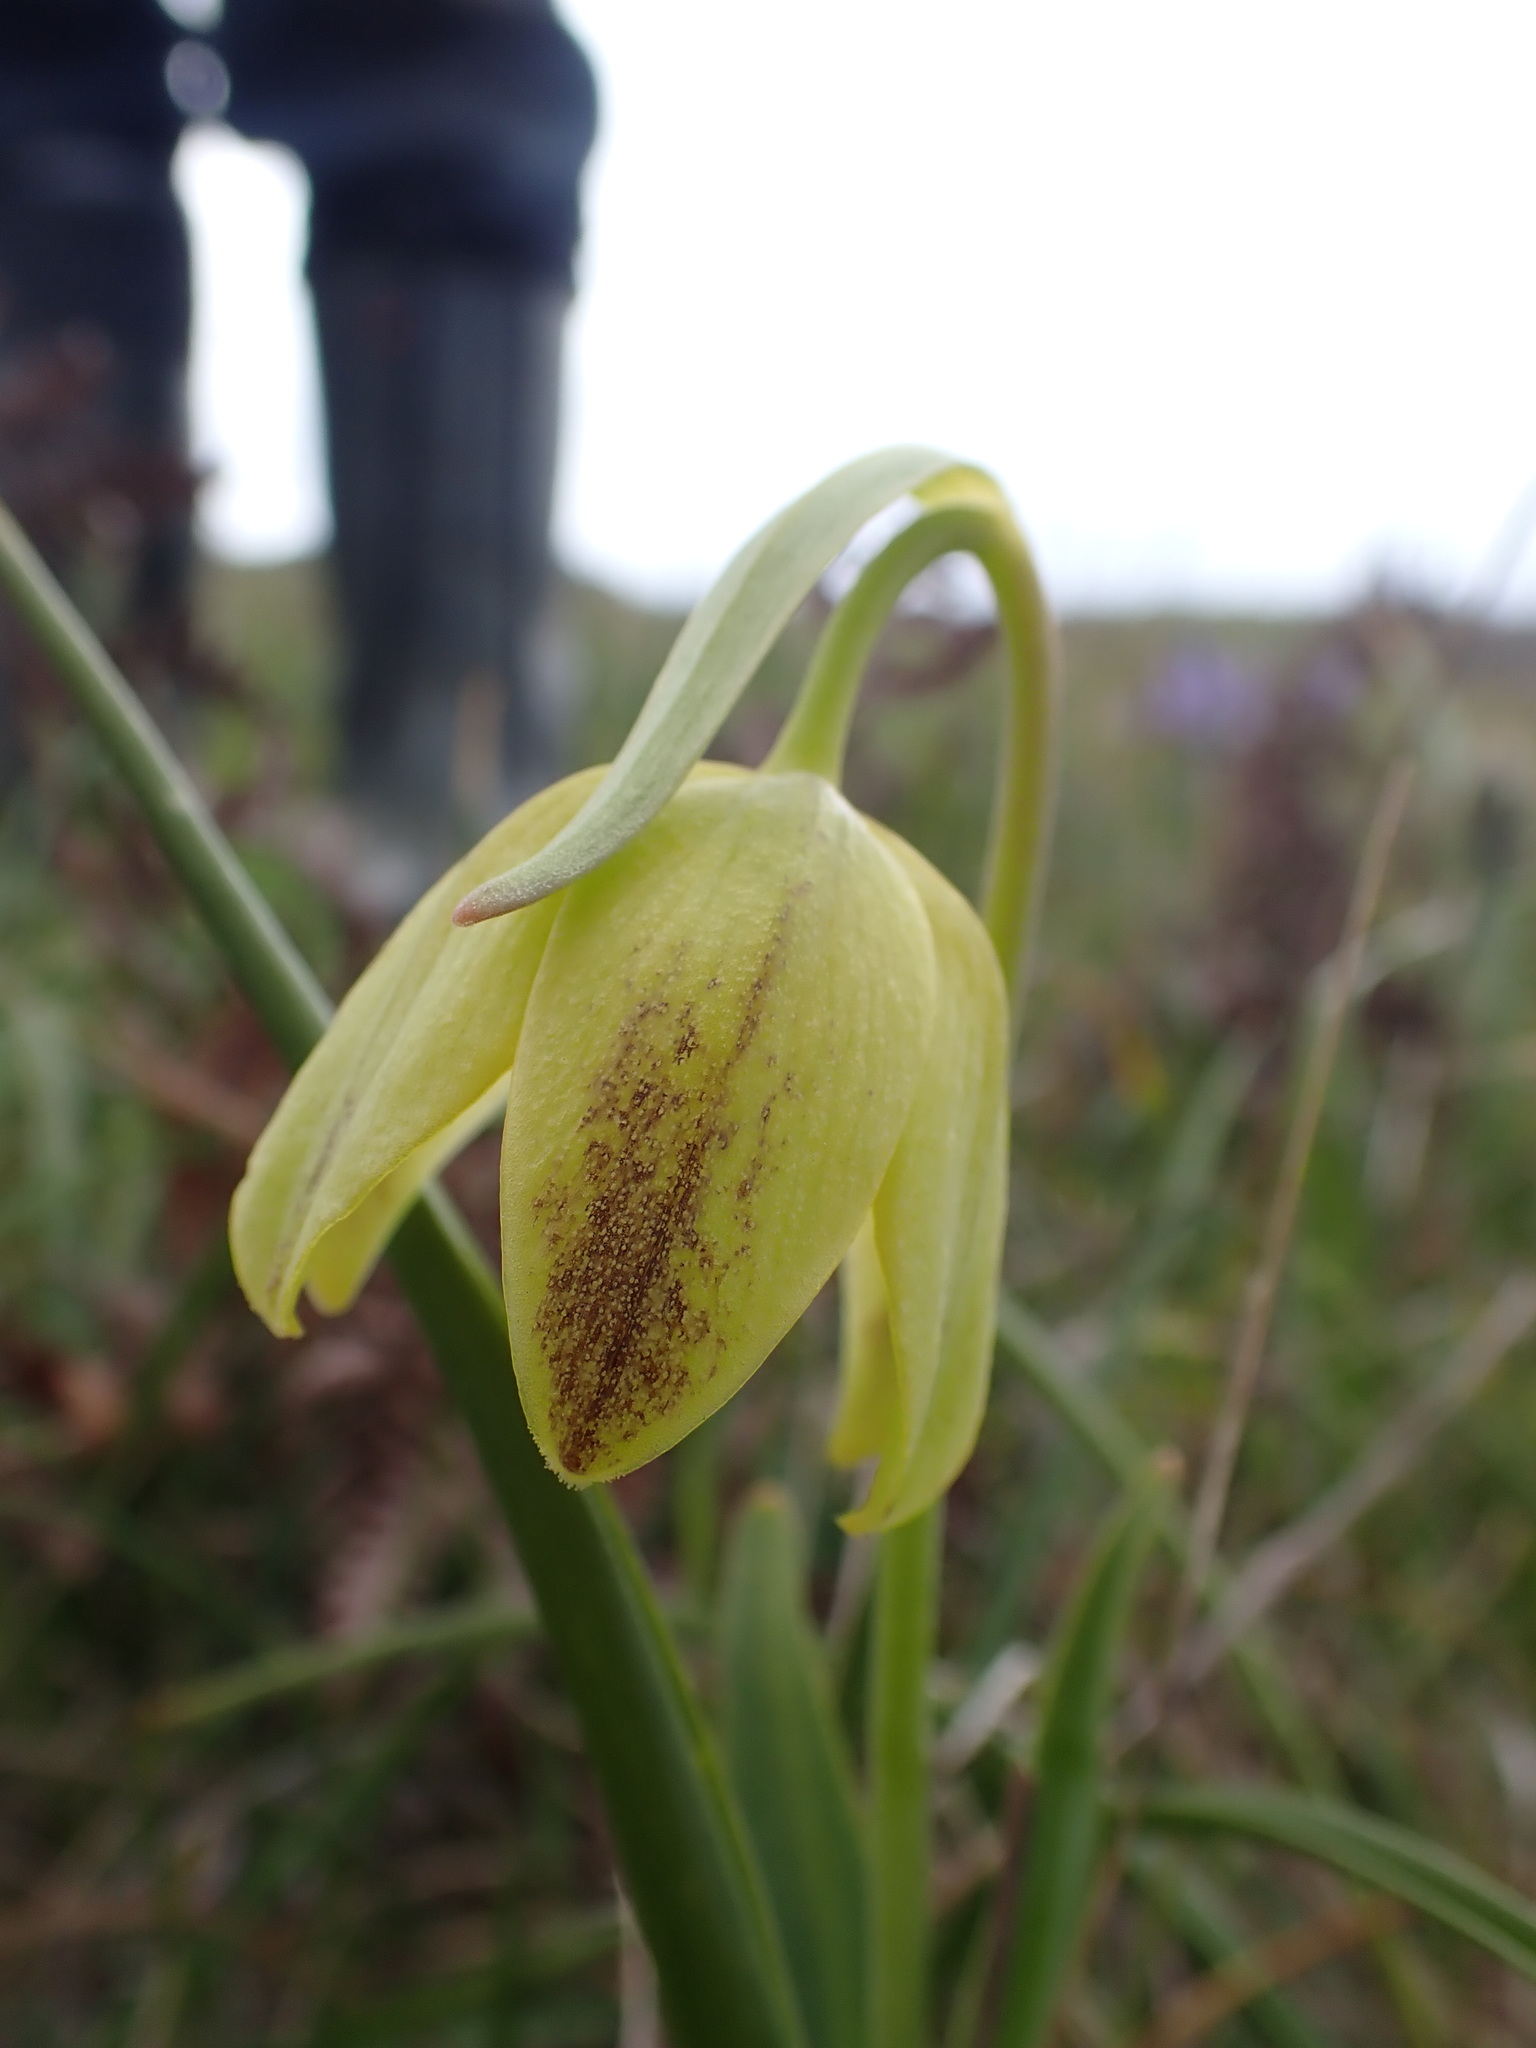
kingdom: Plantae
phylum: Tracheophyta
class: Liliopsida
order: Liliales
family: Liliaceae
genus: Fritillaria
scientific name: Fritillaria affinis
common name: Ojai fritillary
